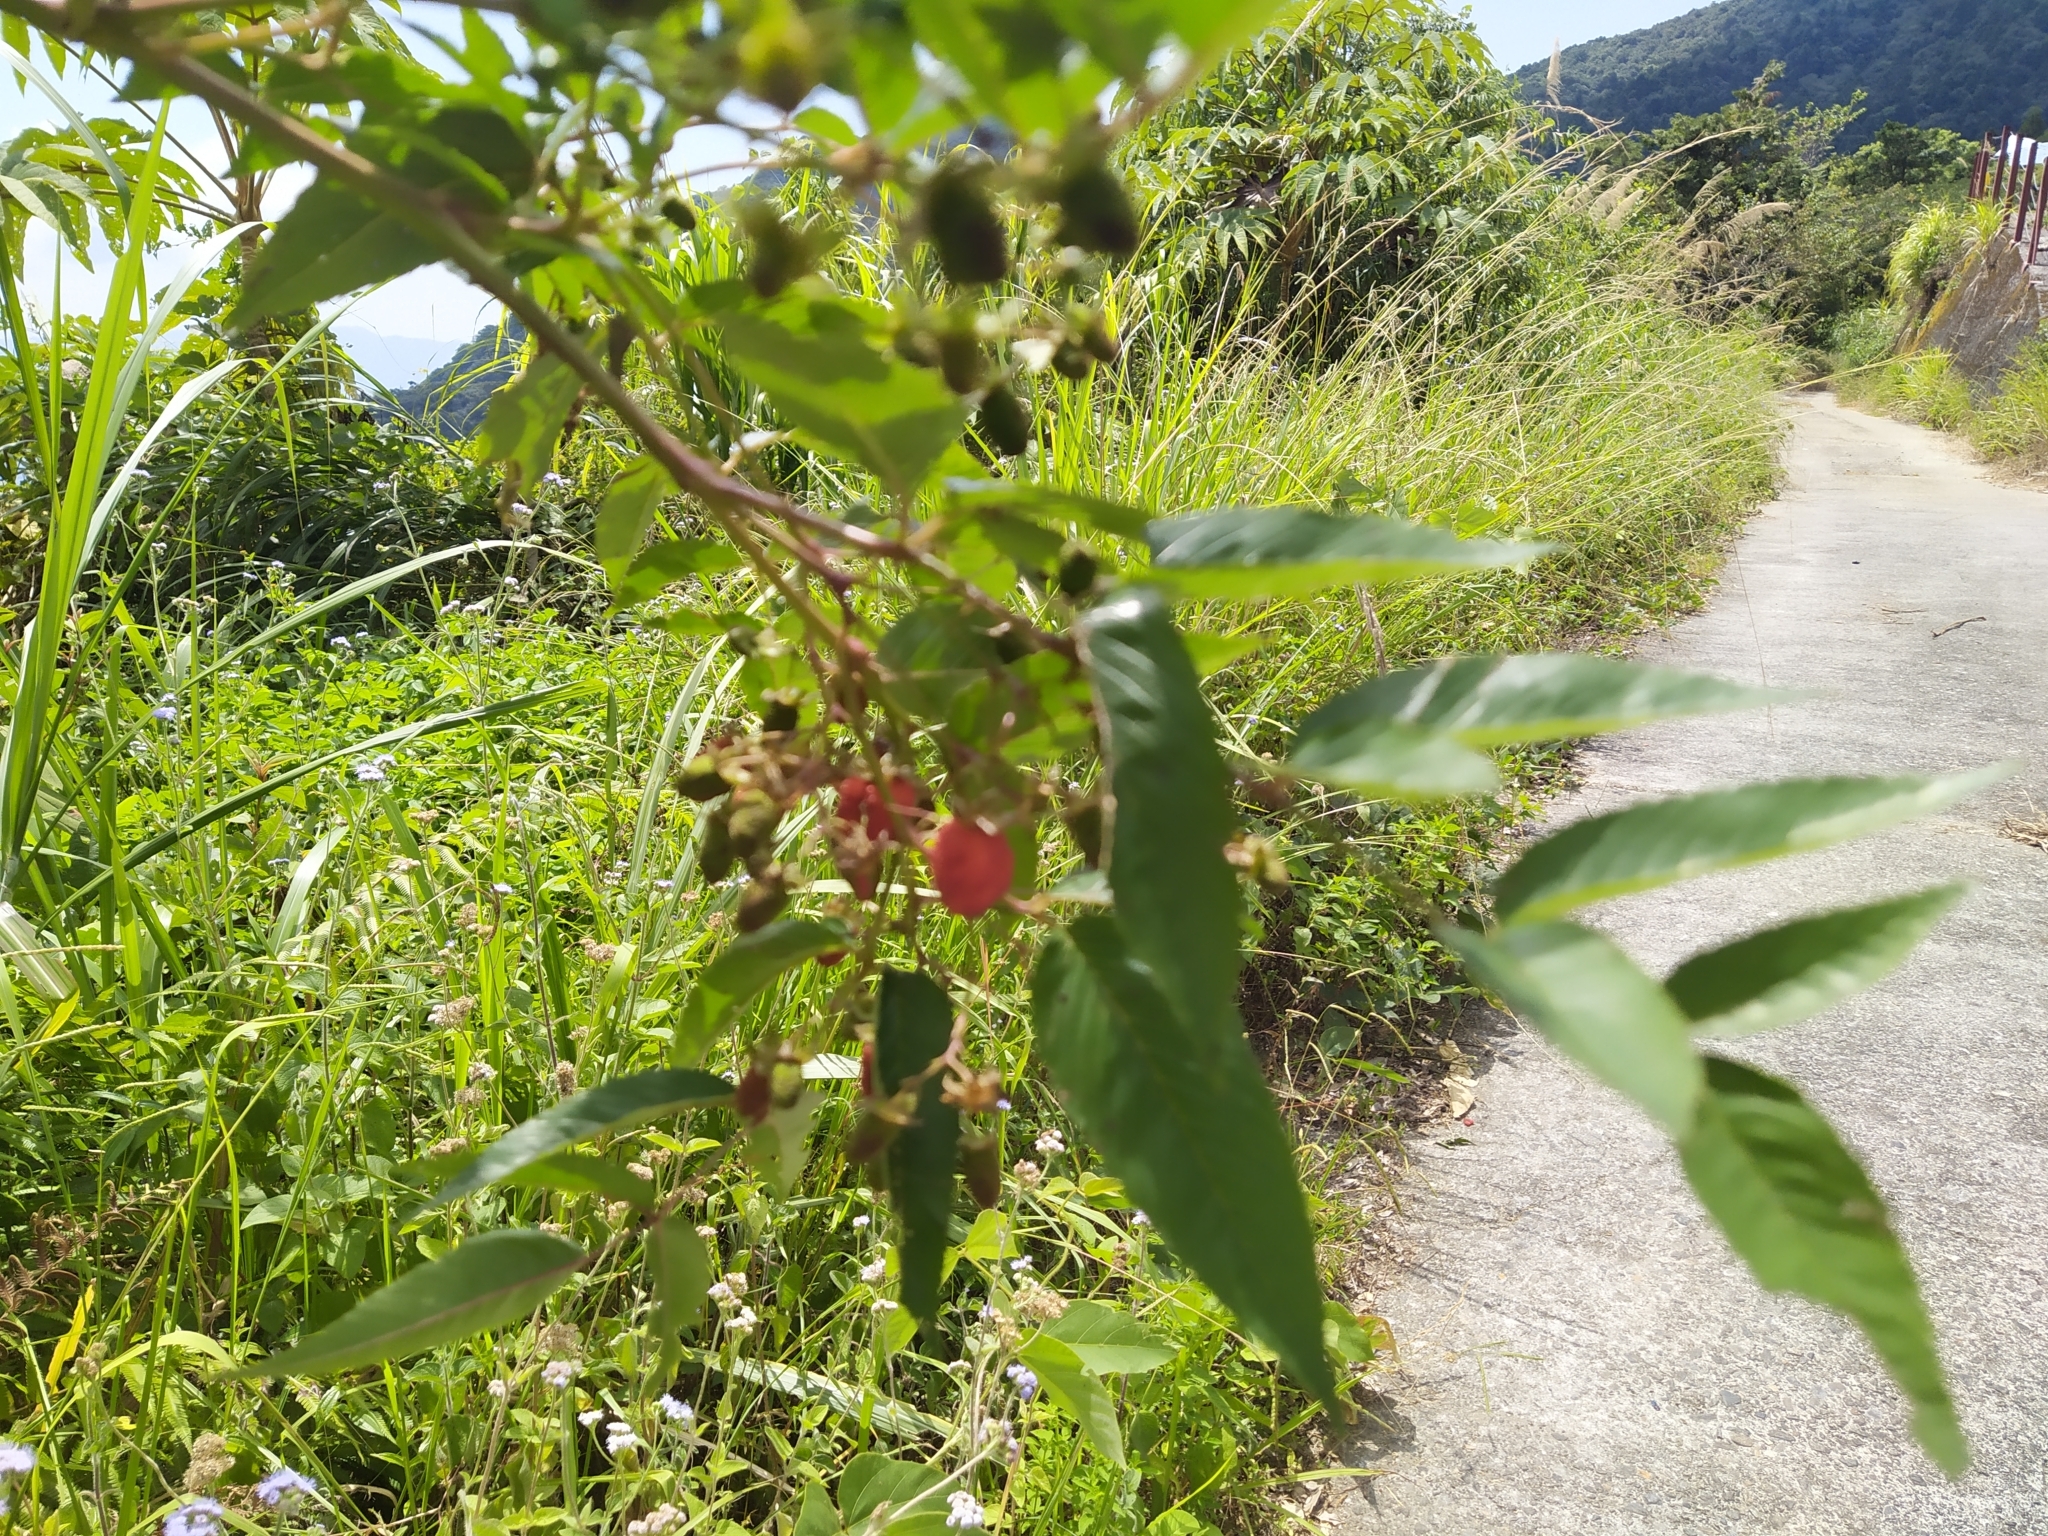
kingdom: Plantae
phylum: Tracheophyta
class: Magnoliopsida
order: Rosales
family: Rosaceae
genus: Rubus
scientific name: Rubus fraxinifolius
